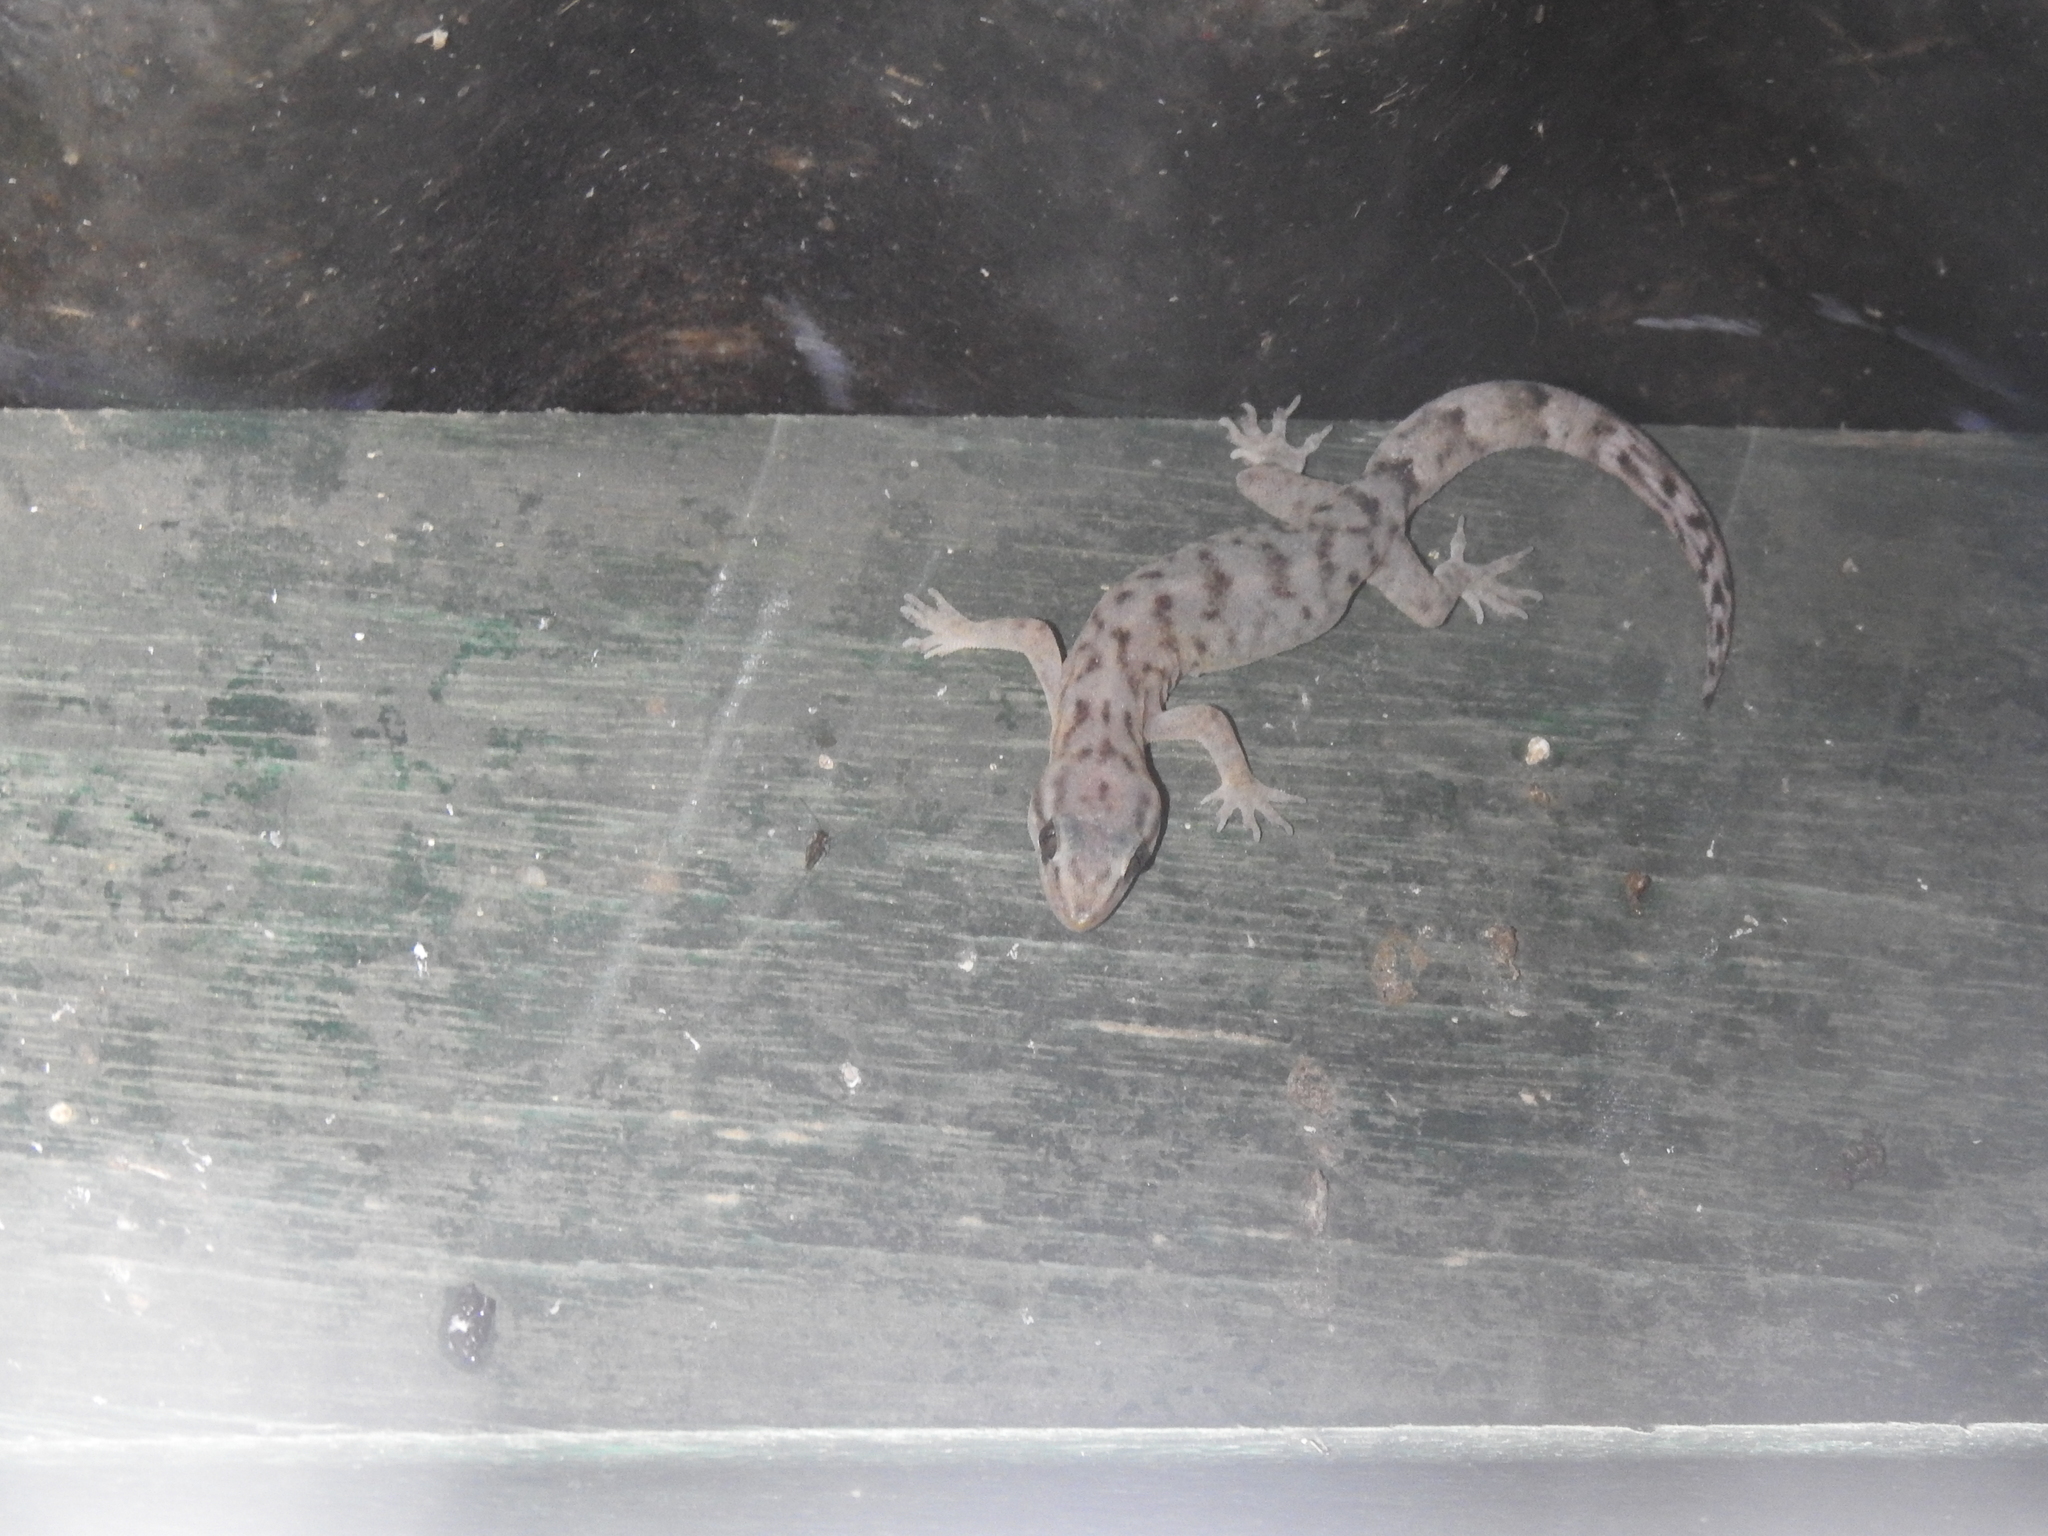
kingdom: Animalia
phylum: Chordata
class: Squamata
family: Gekkonidae
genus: Dravidogecko
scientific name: Dravidogecko tholpalli
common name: Kodaikanal dravidogecko
